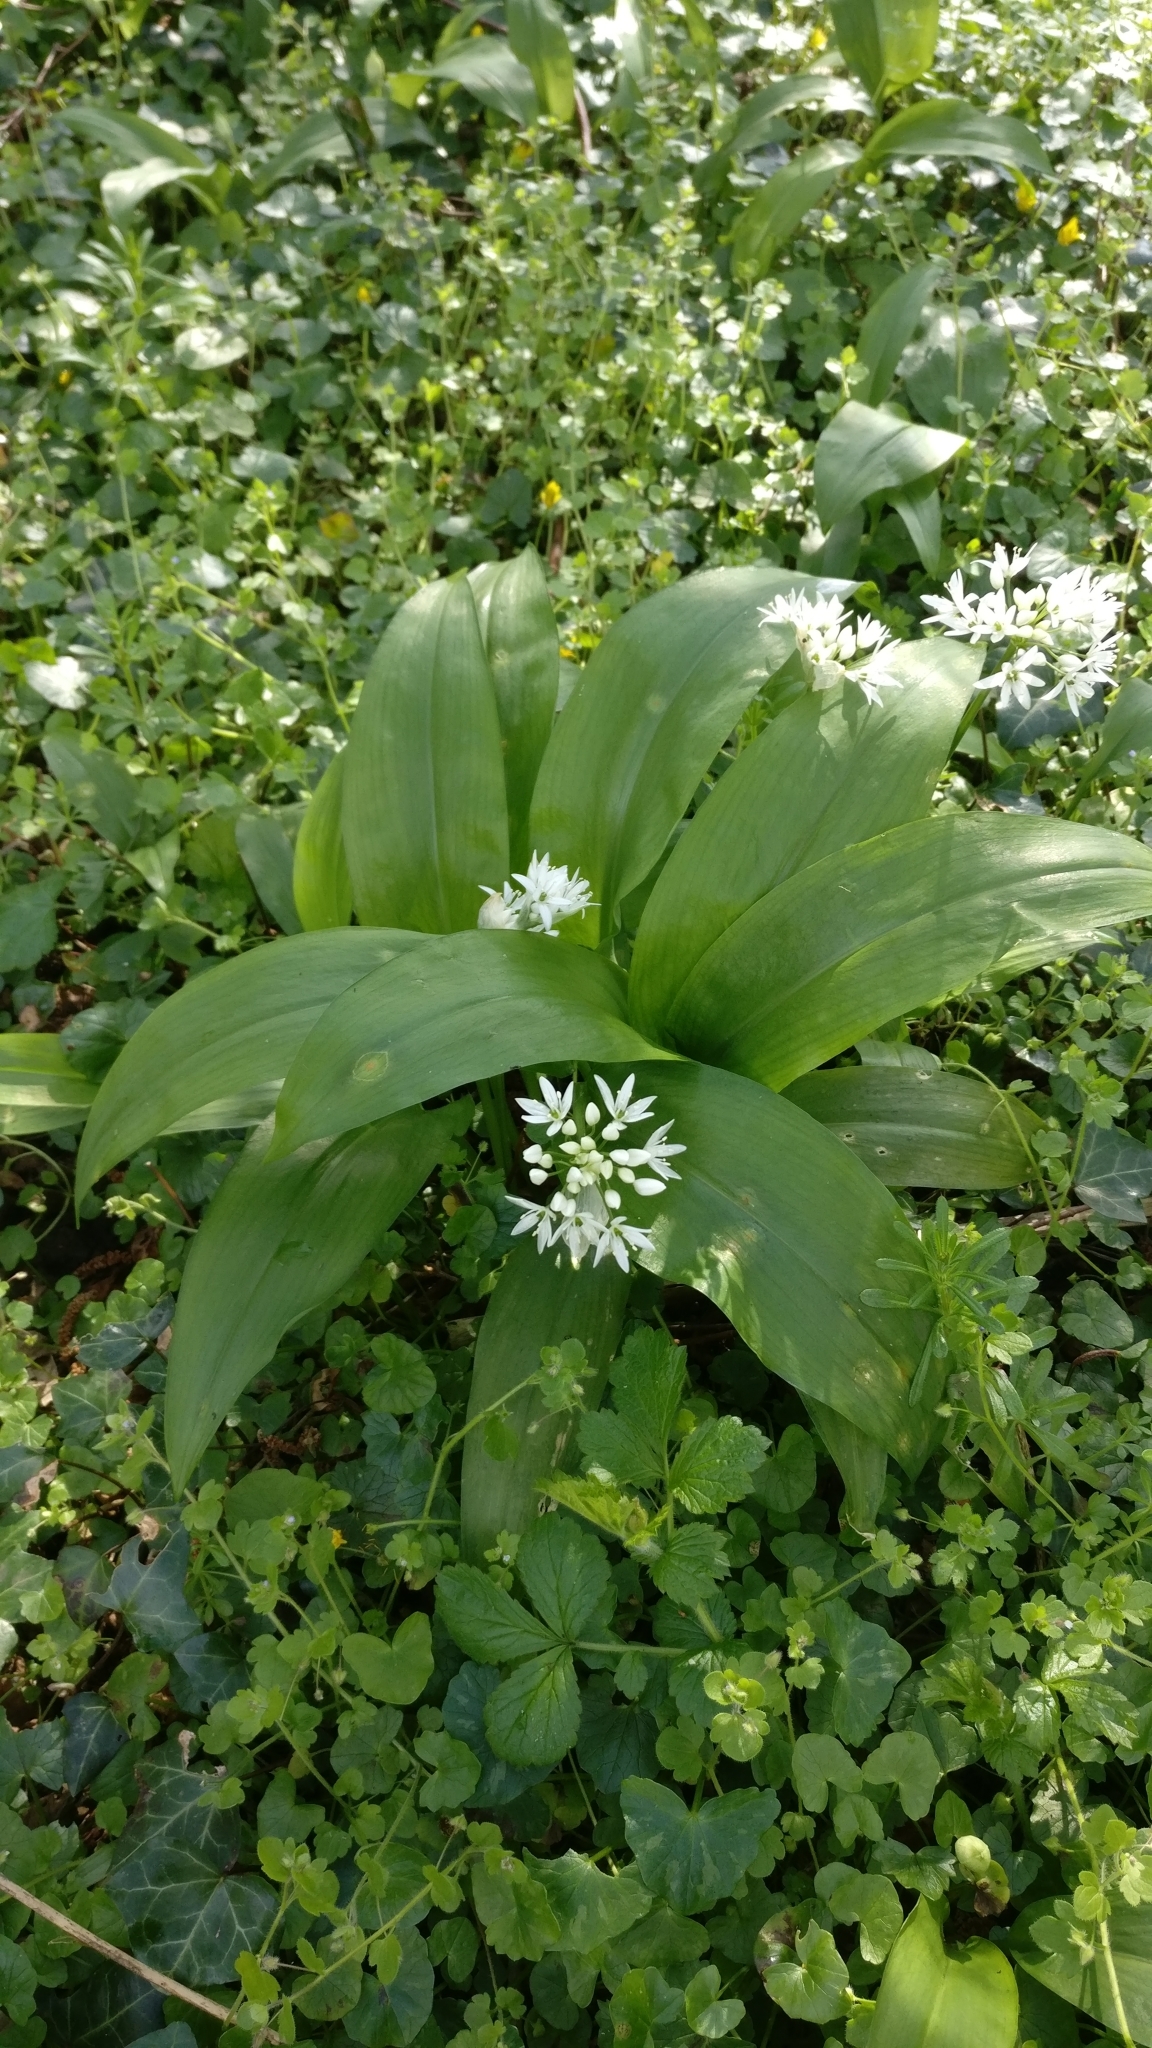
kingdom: Plantae
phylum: Tracheophyta
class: Liliopsida
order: Asparagales
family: Amaryllidaceae
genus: Allium
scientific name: Allium ursinum
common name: Ramsons
